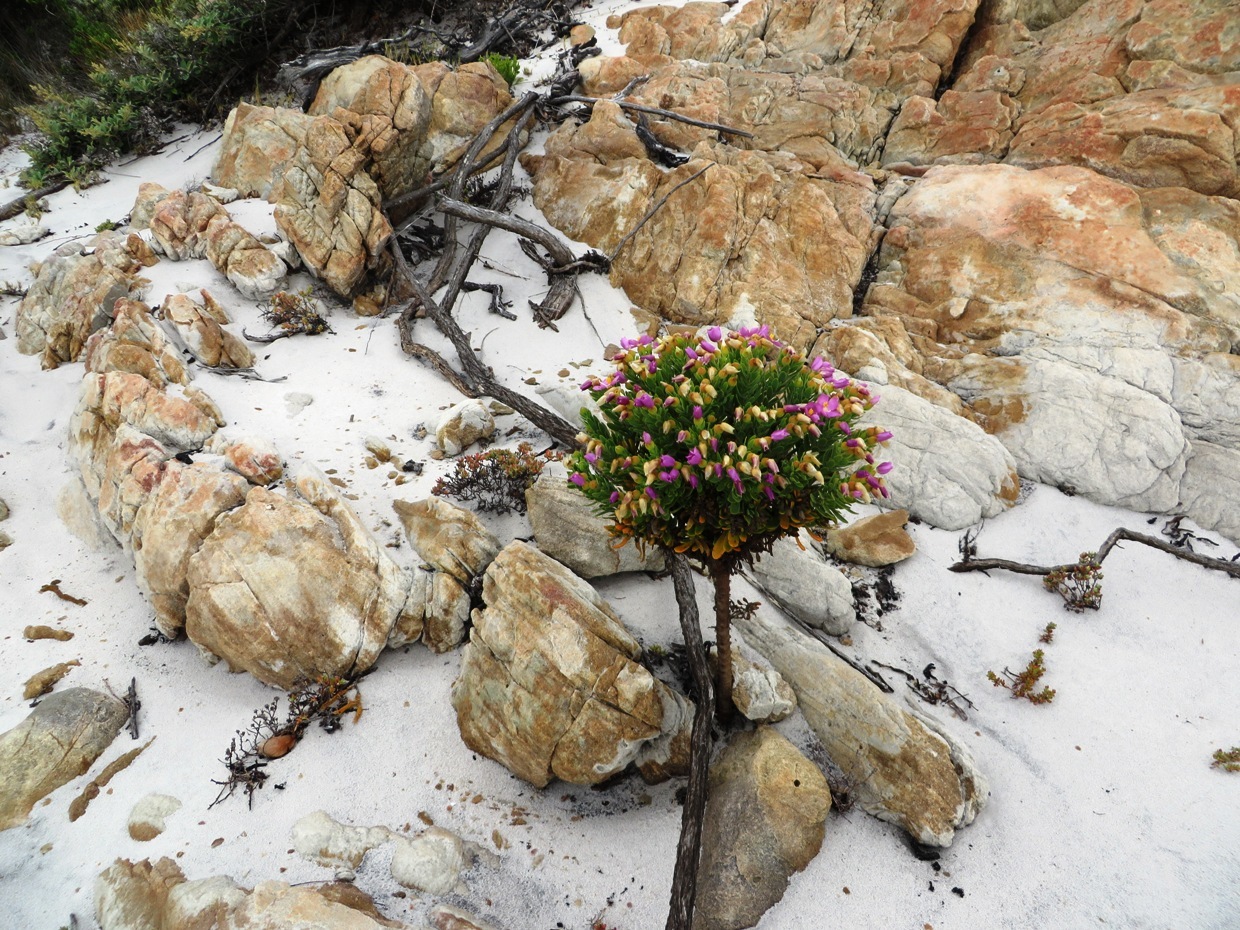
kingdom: Plantae
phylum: Tracheophyta
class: Magnoliopsida
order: Gentianales
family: Gentianaceae
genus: Orphium
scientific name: Orphium frutescens
